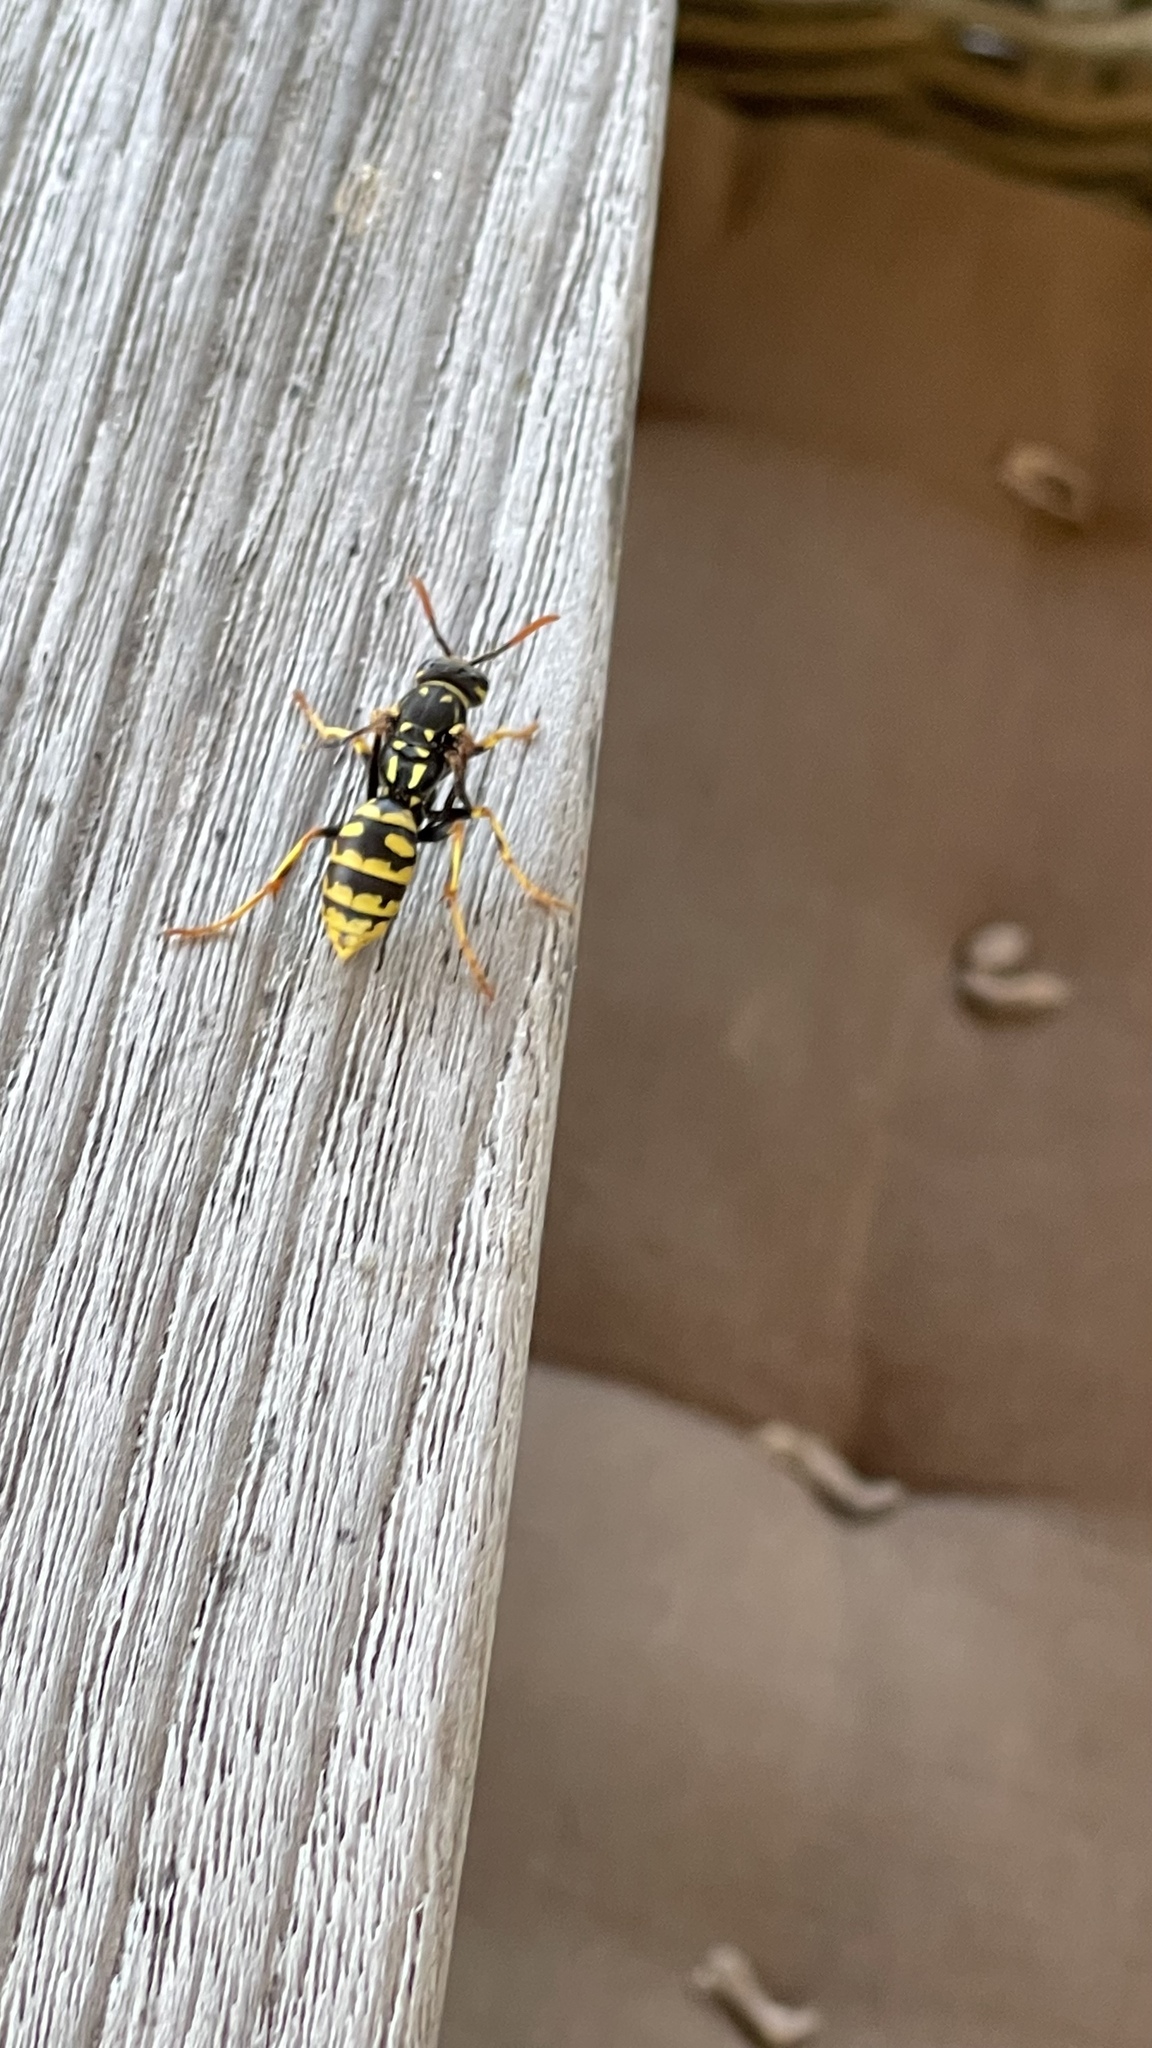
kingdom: Animalia
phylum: Arthropoda
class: Insecta
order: Hymenoptera
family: Eumenidae
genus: Polistes
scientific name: Polistes dominula
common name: Paper wasp
